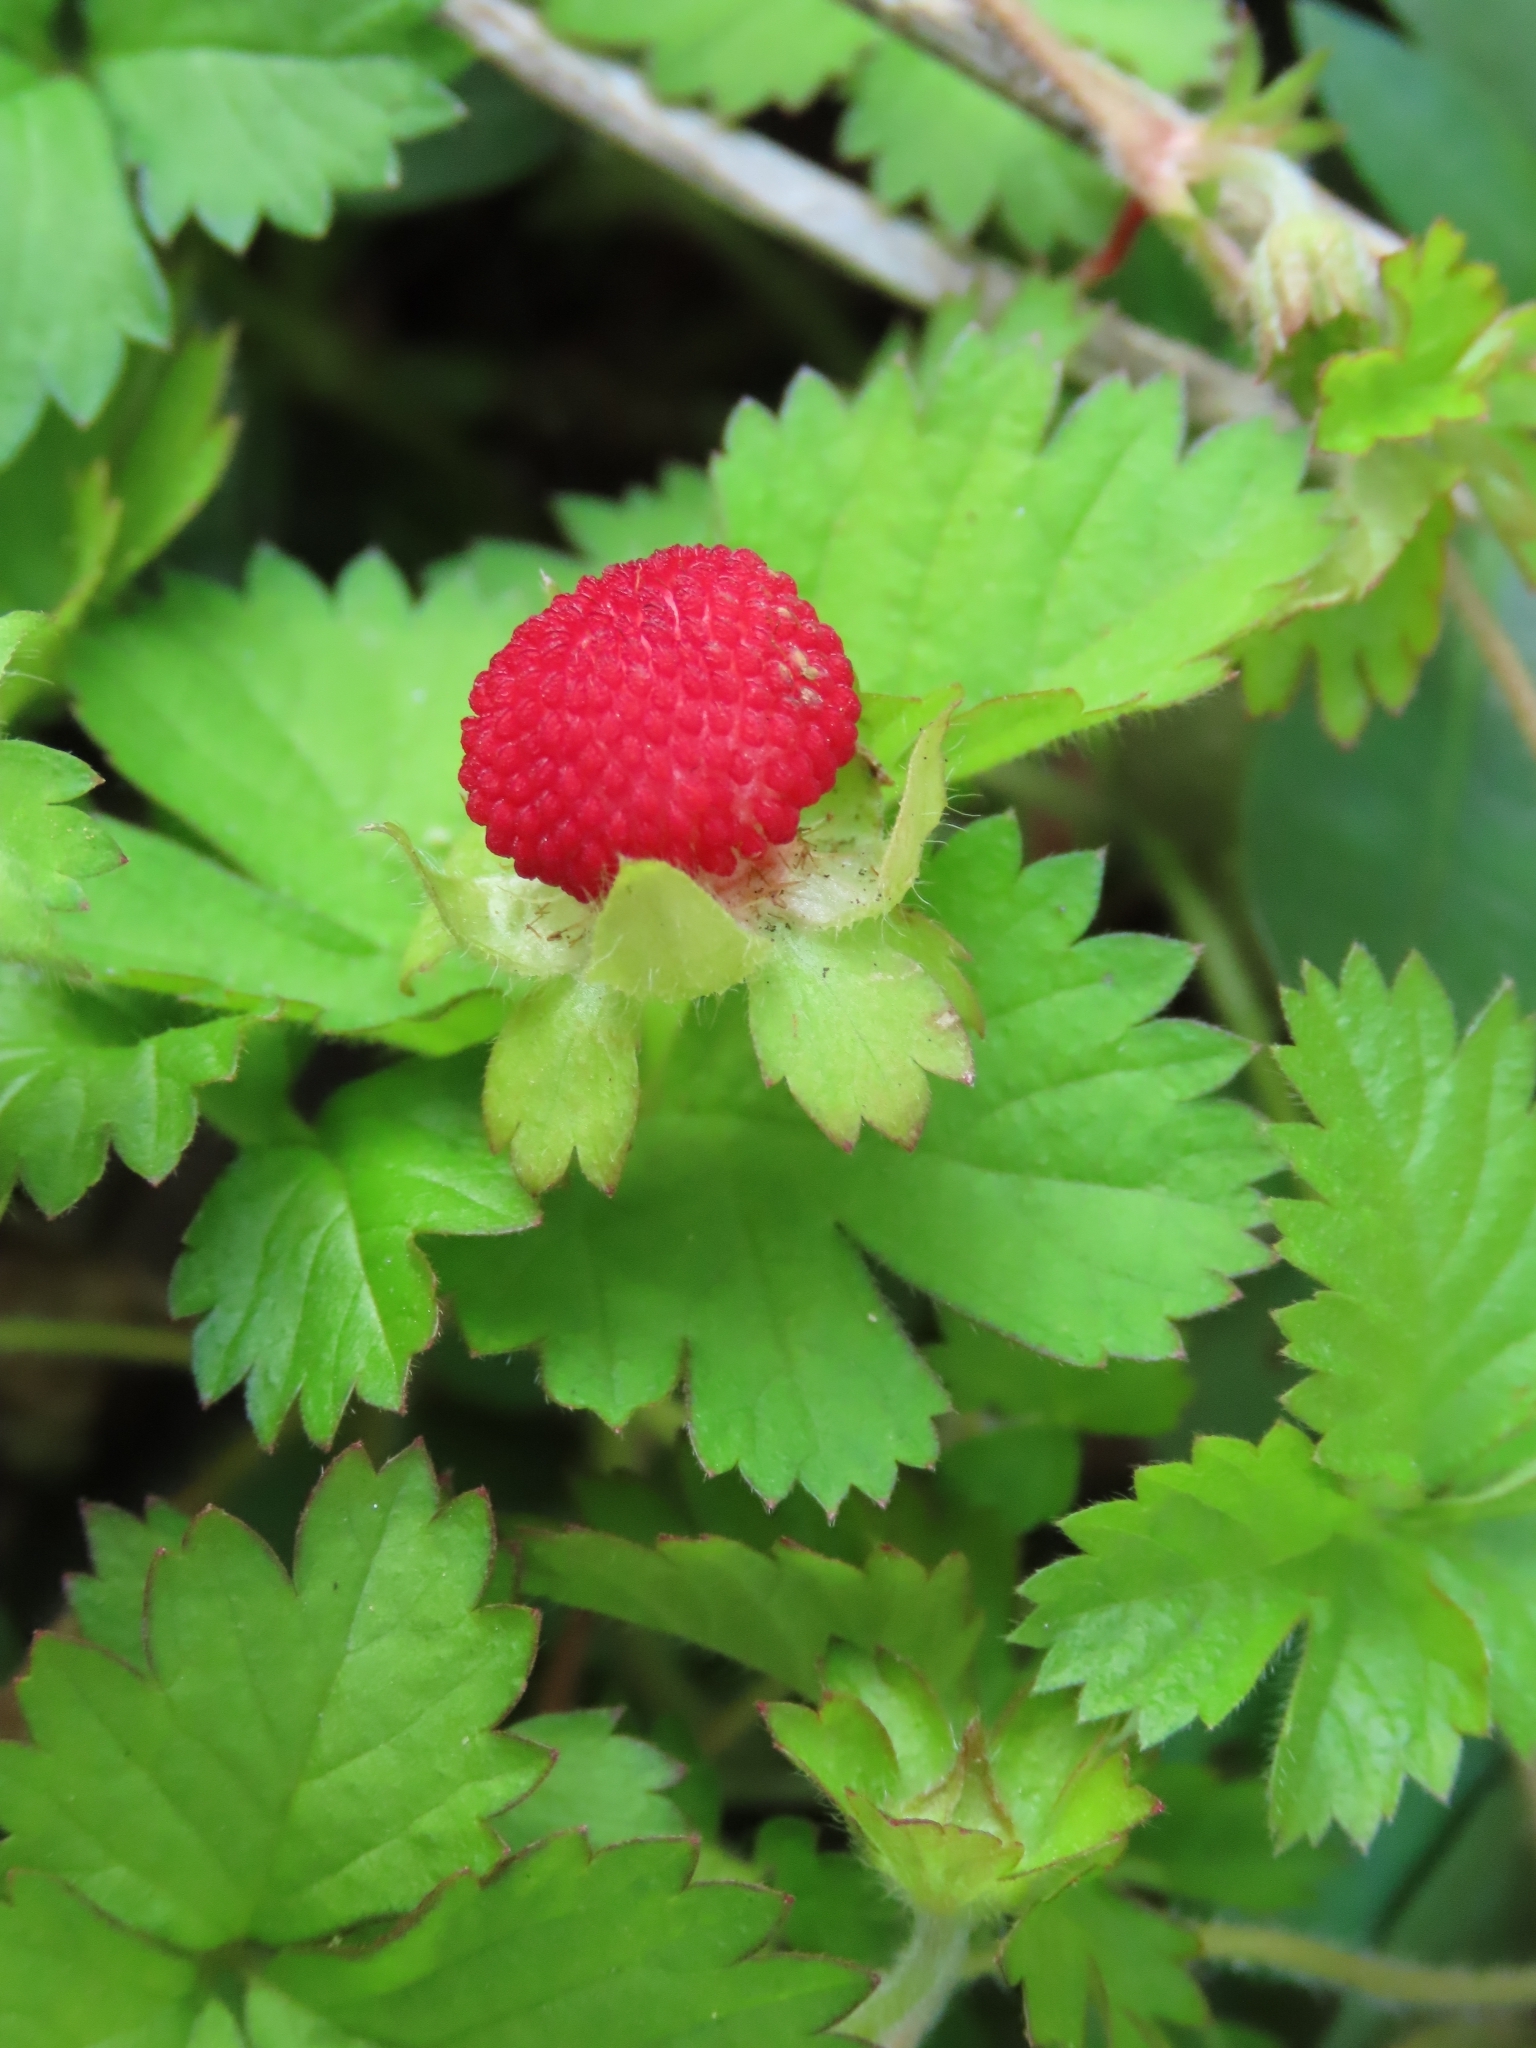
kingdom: Plantae
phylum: Tracheophyta
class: Magnoliopsida
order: Rosales
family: Rosaceae
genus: Potentilla
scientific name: Potentilla wallichiana
